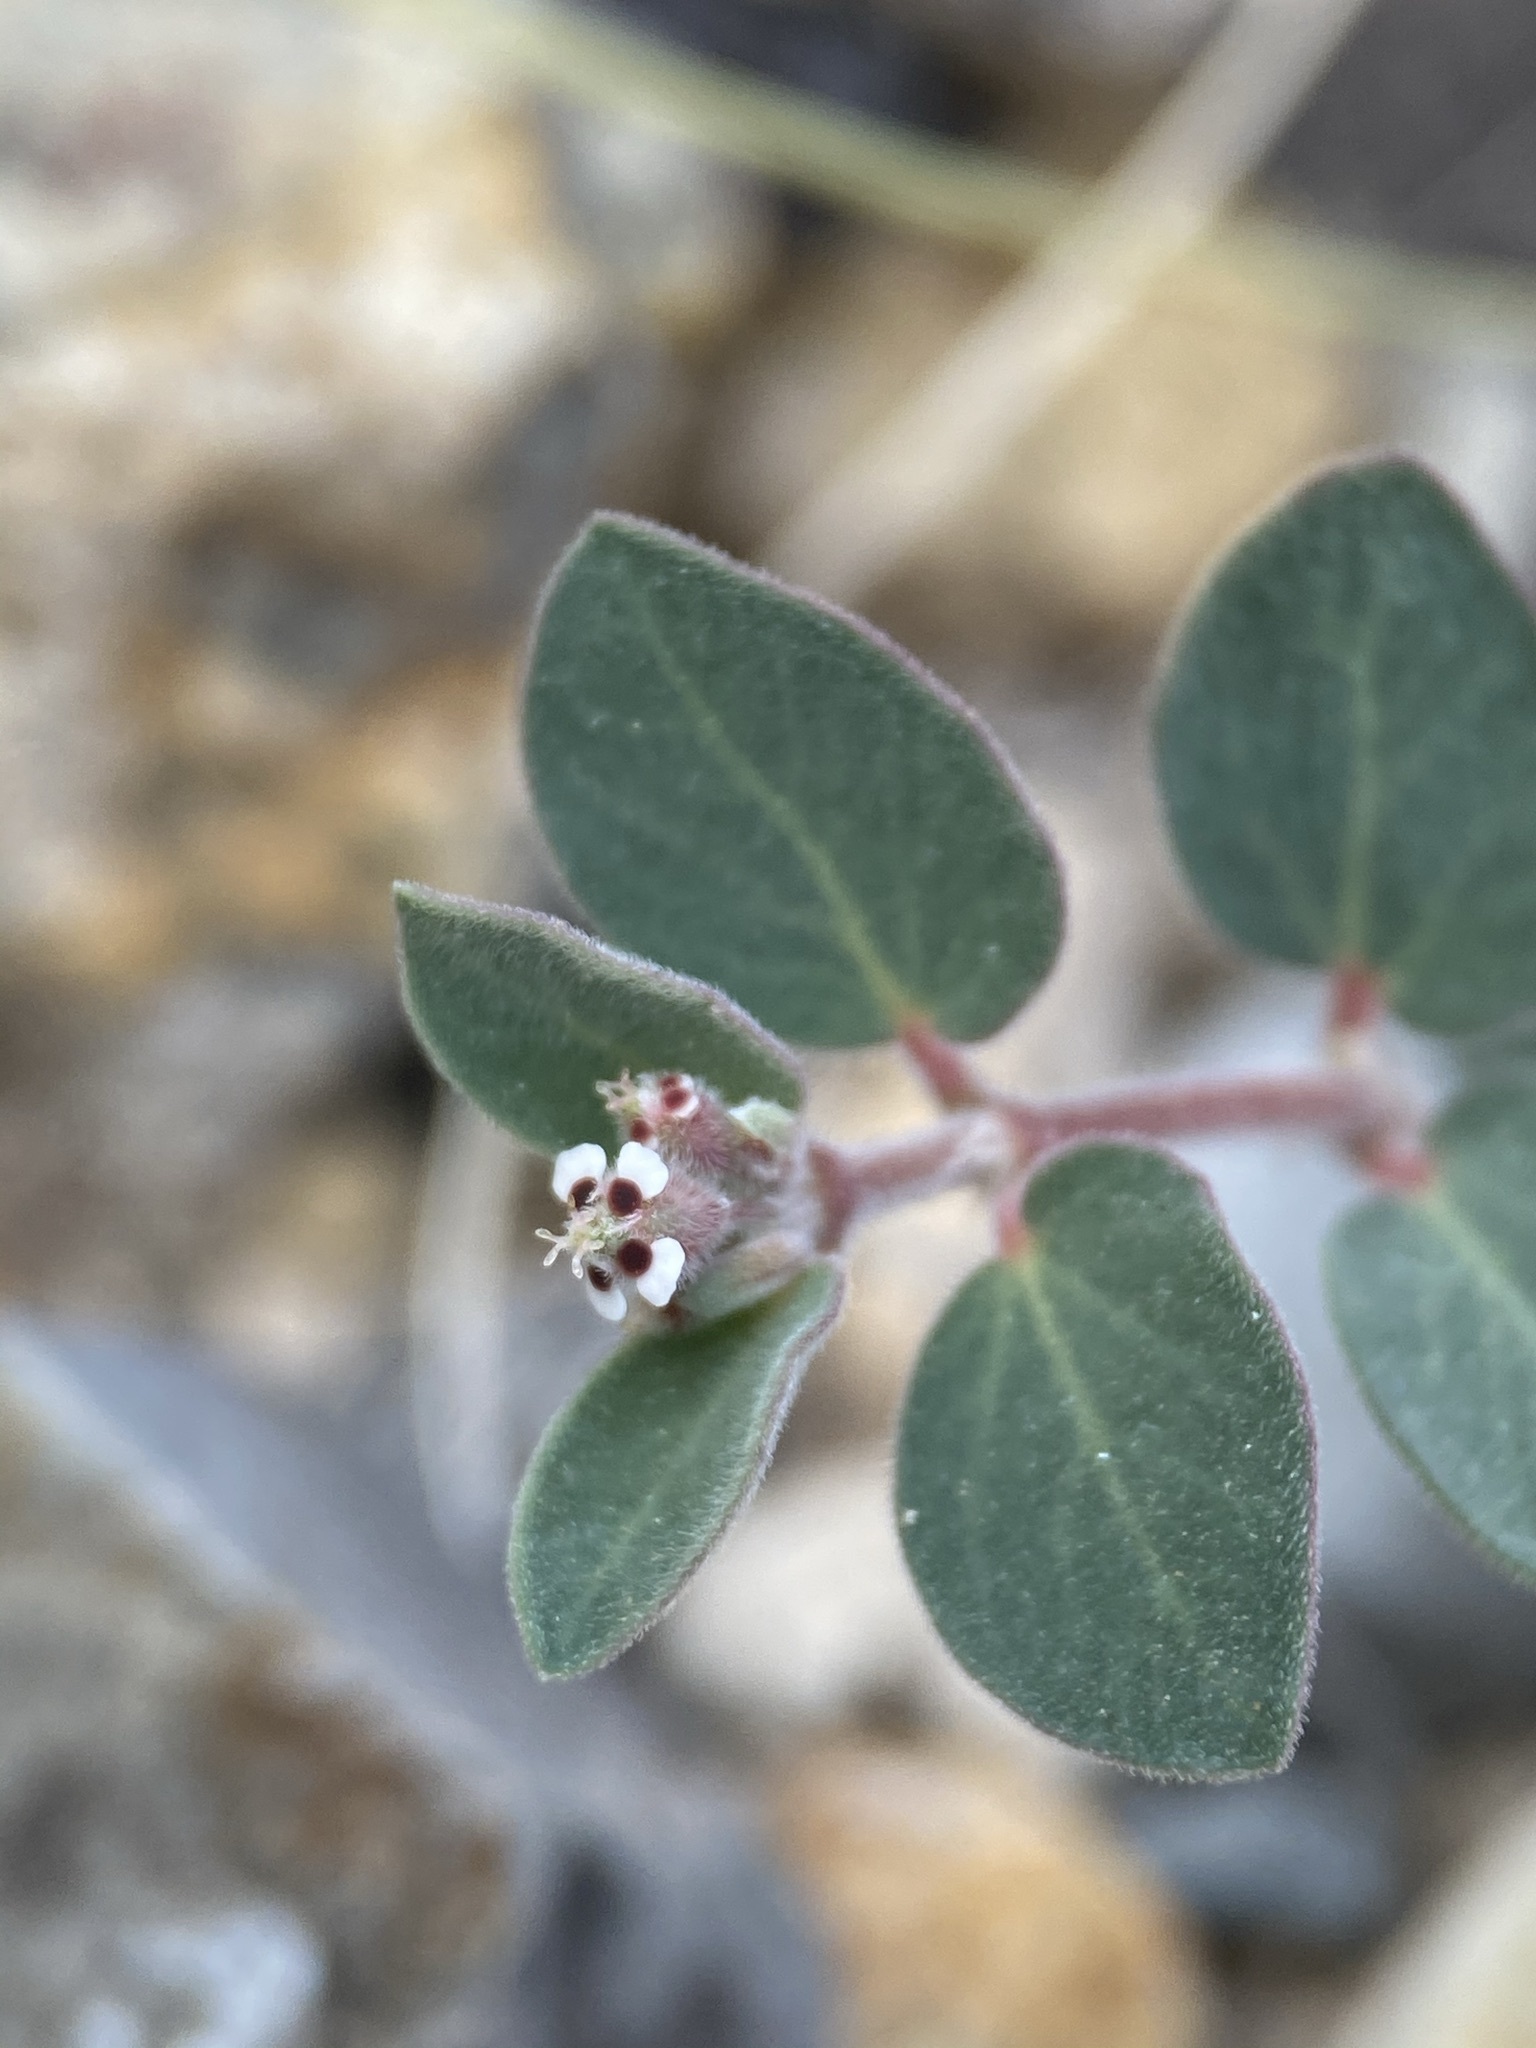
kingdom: Plantae
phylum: Tracheophyta
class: Magnoliopsida
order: Malpighiales
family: Euphorbiaceae
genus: Euphorbia
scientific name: Euphorbia capitellata
